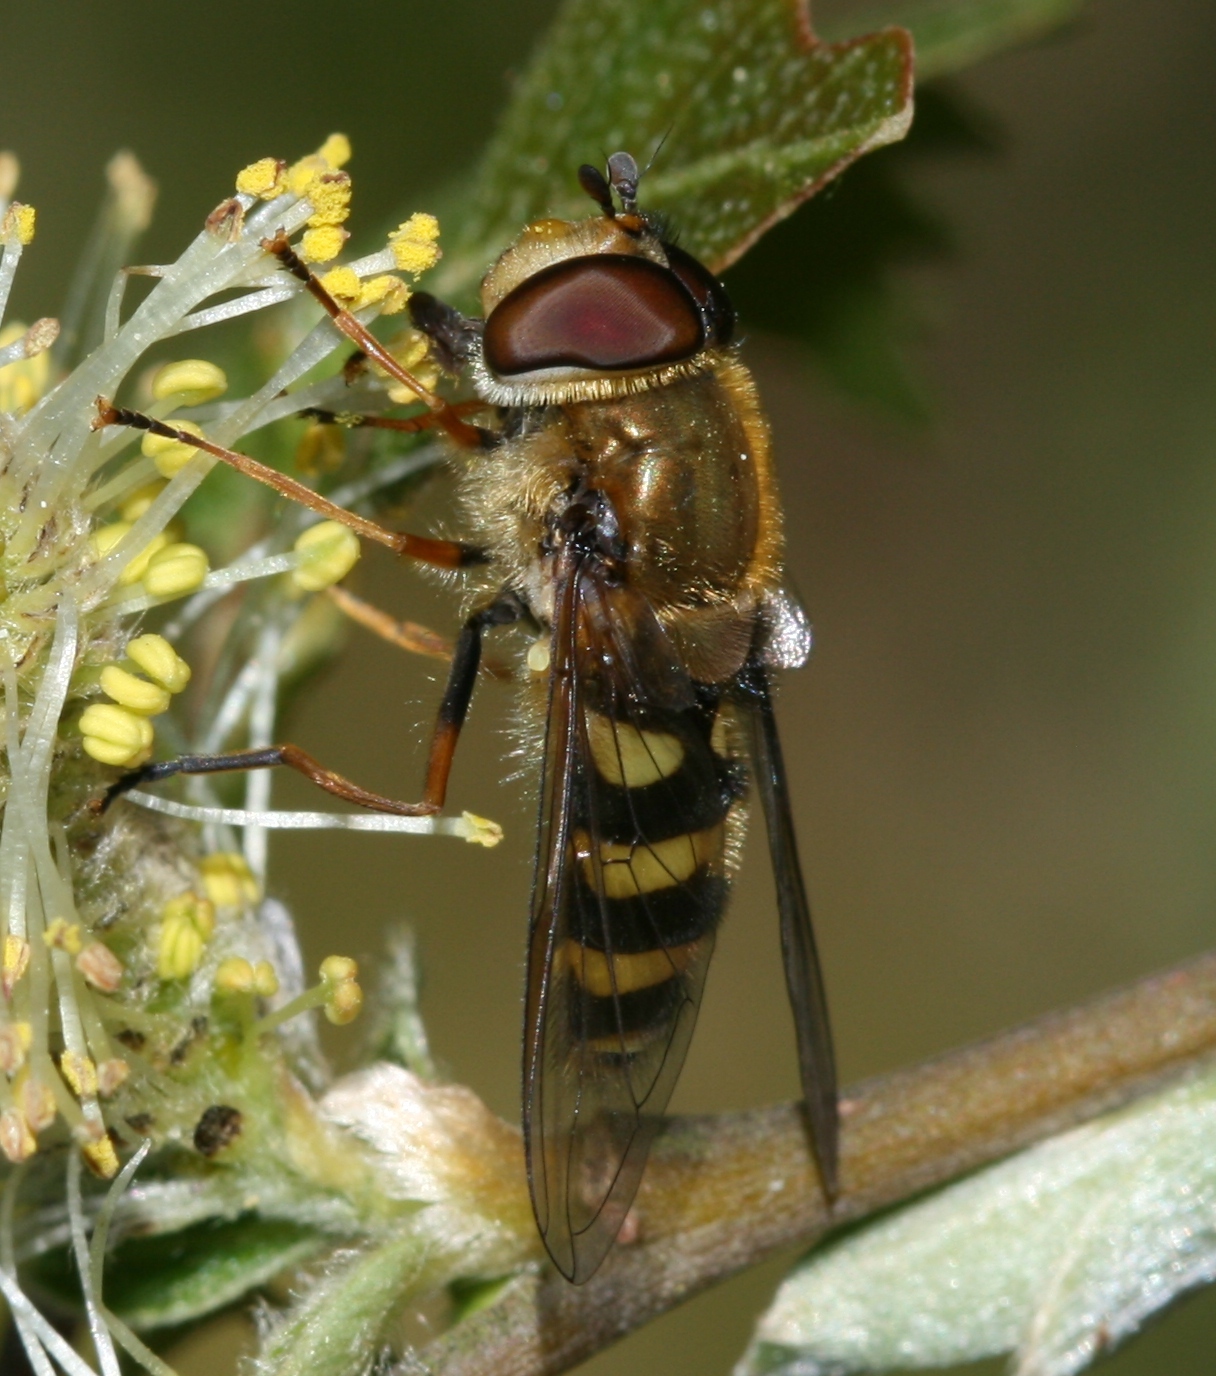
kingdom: Animalia
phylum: Arthropoda
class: Insecta
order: Diptera
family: Syrphidae
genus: Syrphus
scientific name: Syrphus
